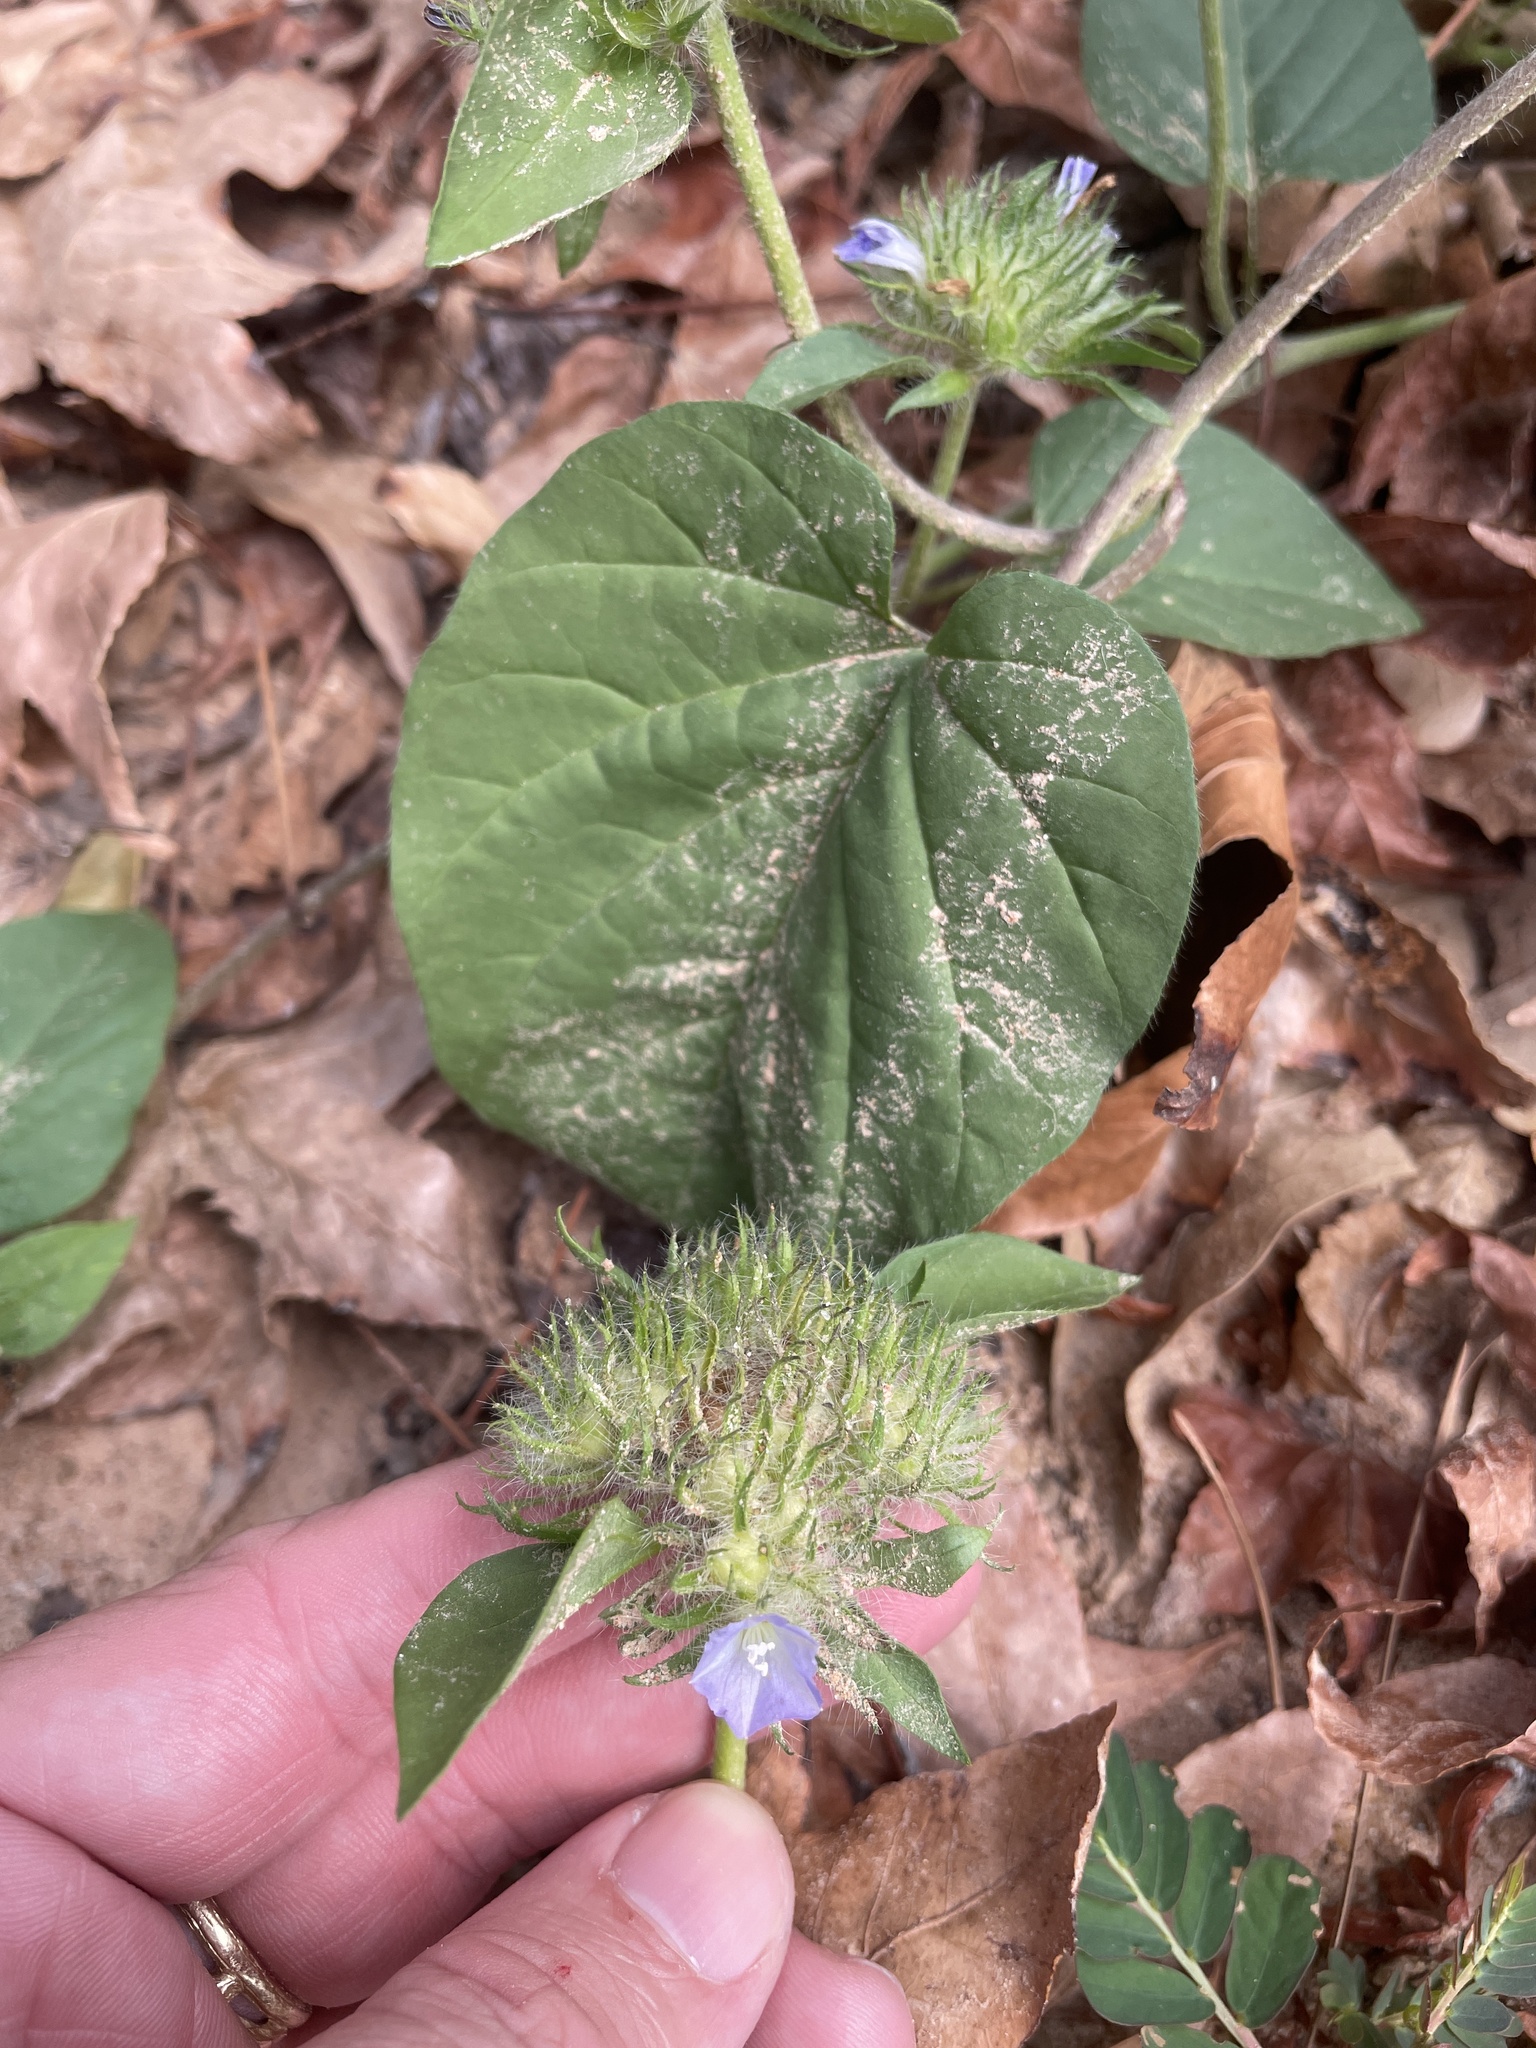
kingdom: Plantae
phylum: Tracheophyta
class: Magnoliopsida
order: Solanales
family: Convolvulaceae
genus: Jacquemontia
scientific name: Jacquemontia tamnifolia
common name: Hairy clustervine
